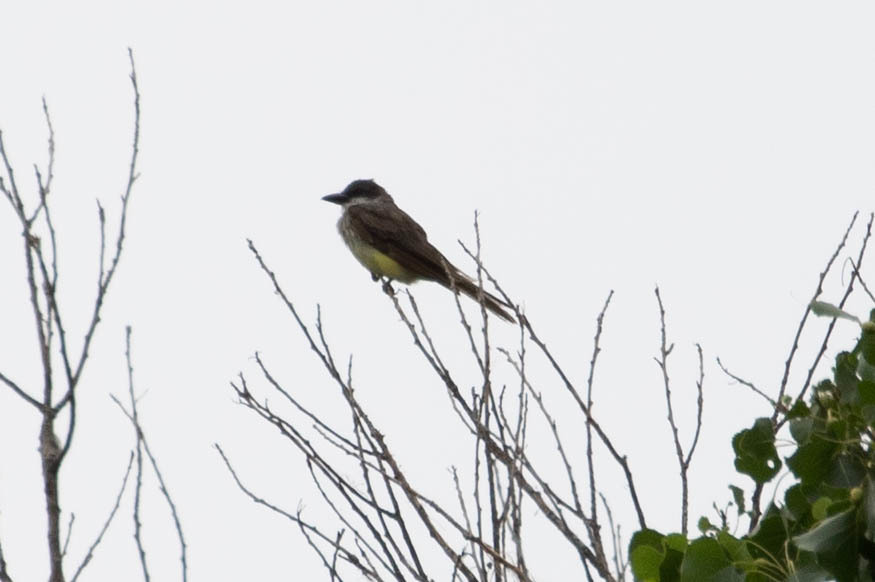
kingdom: Animalia
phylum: Chordata
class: Aves
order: Passeriformes
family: Tyrannidae
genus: Tyrannus
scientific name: Tyrannus crassirostris
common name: Thick-billed kingbird
